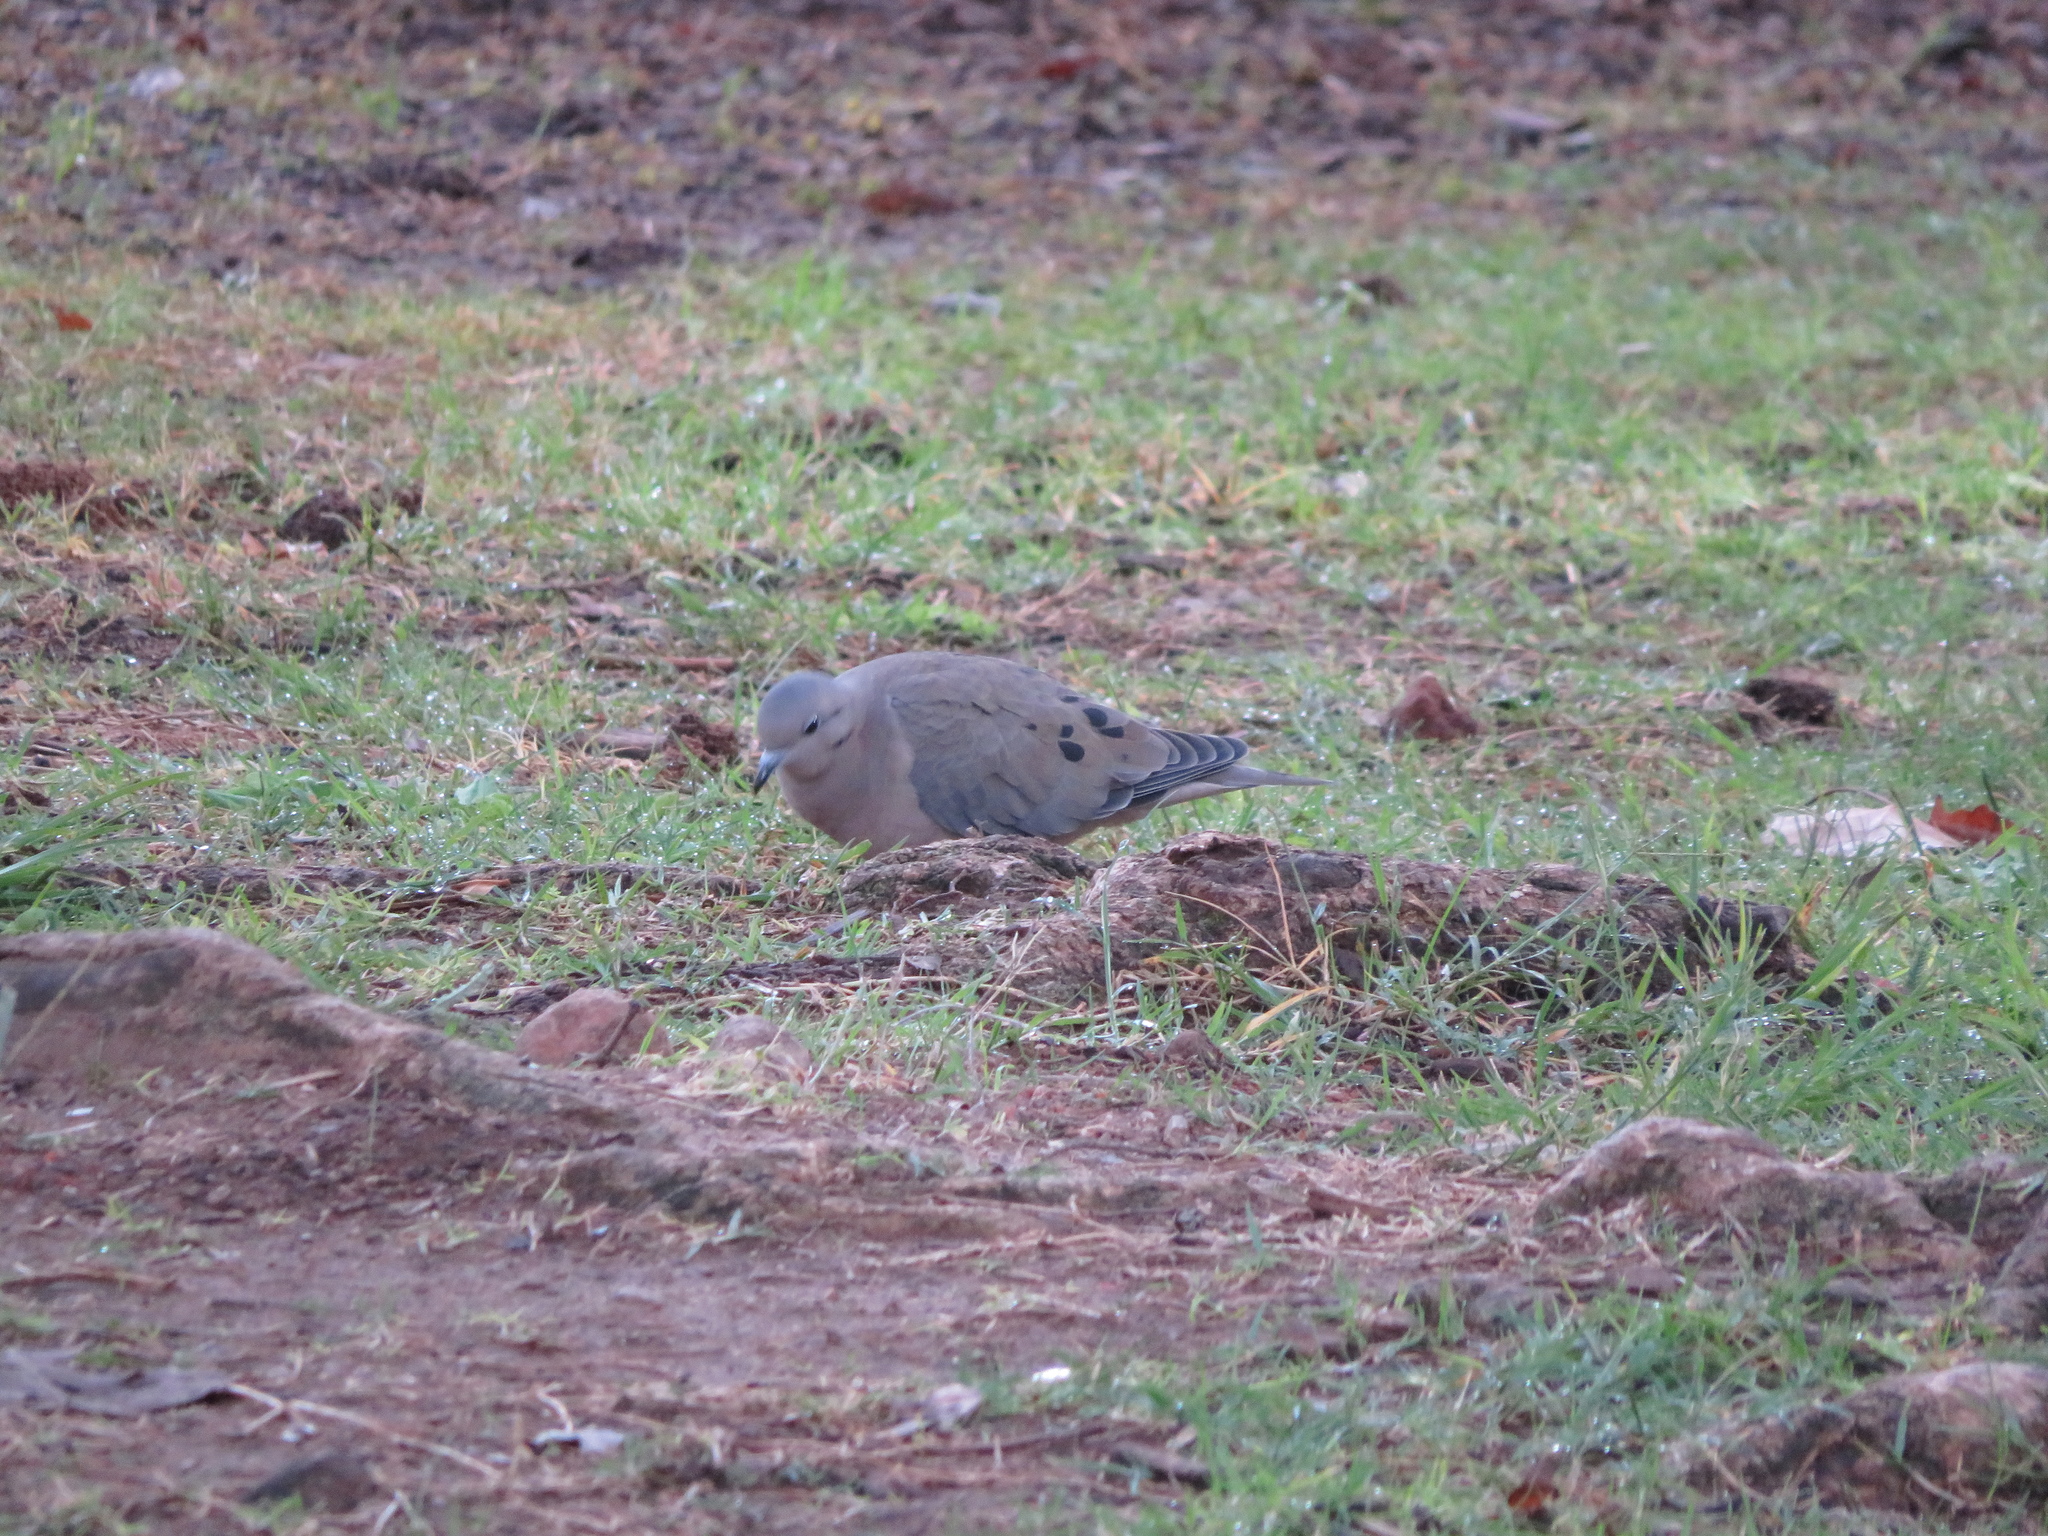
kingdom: Animalia
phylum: Chordata
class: Aves
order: Columbiformes
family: Columbidae
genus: Zenaida
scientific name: Zenaida auriculata
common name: Eared dove
